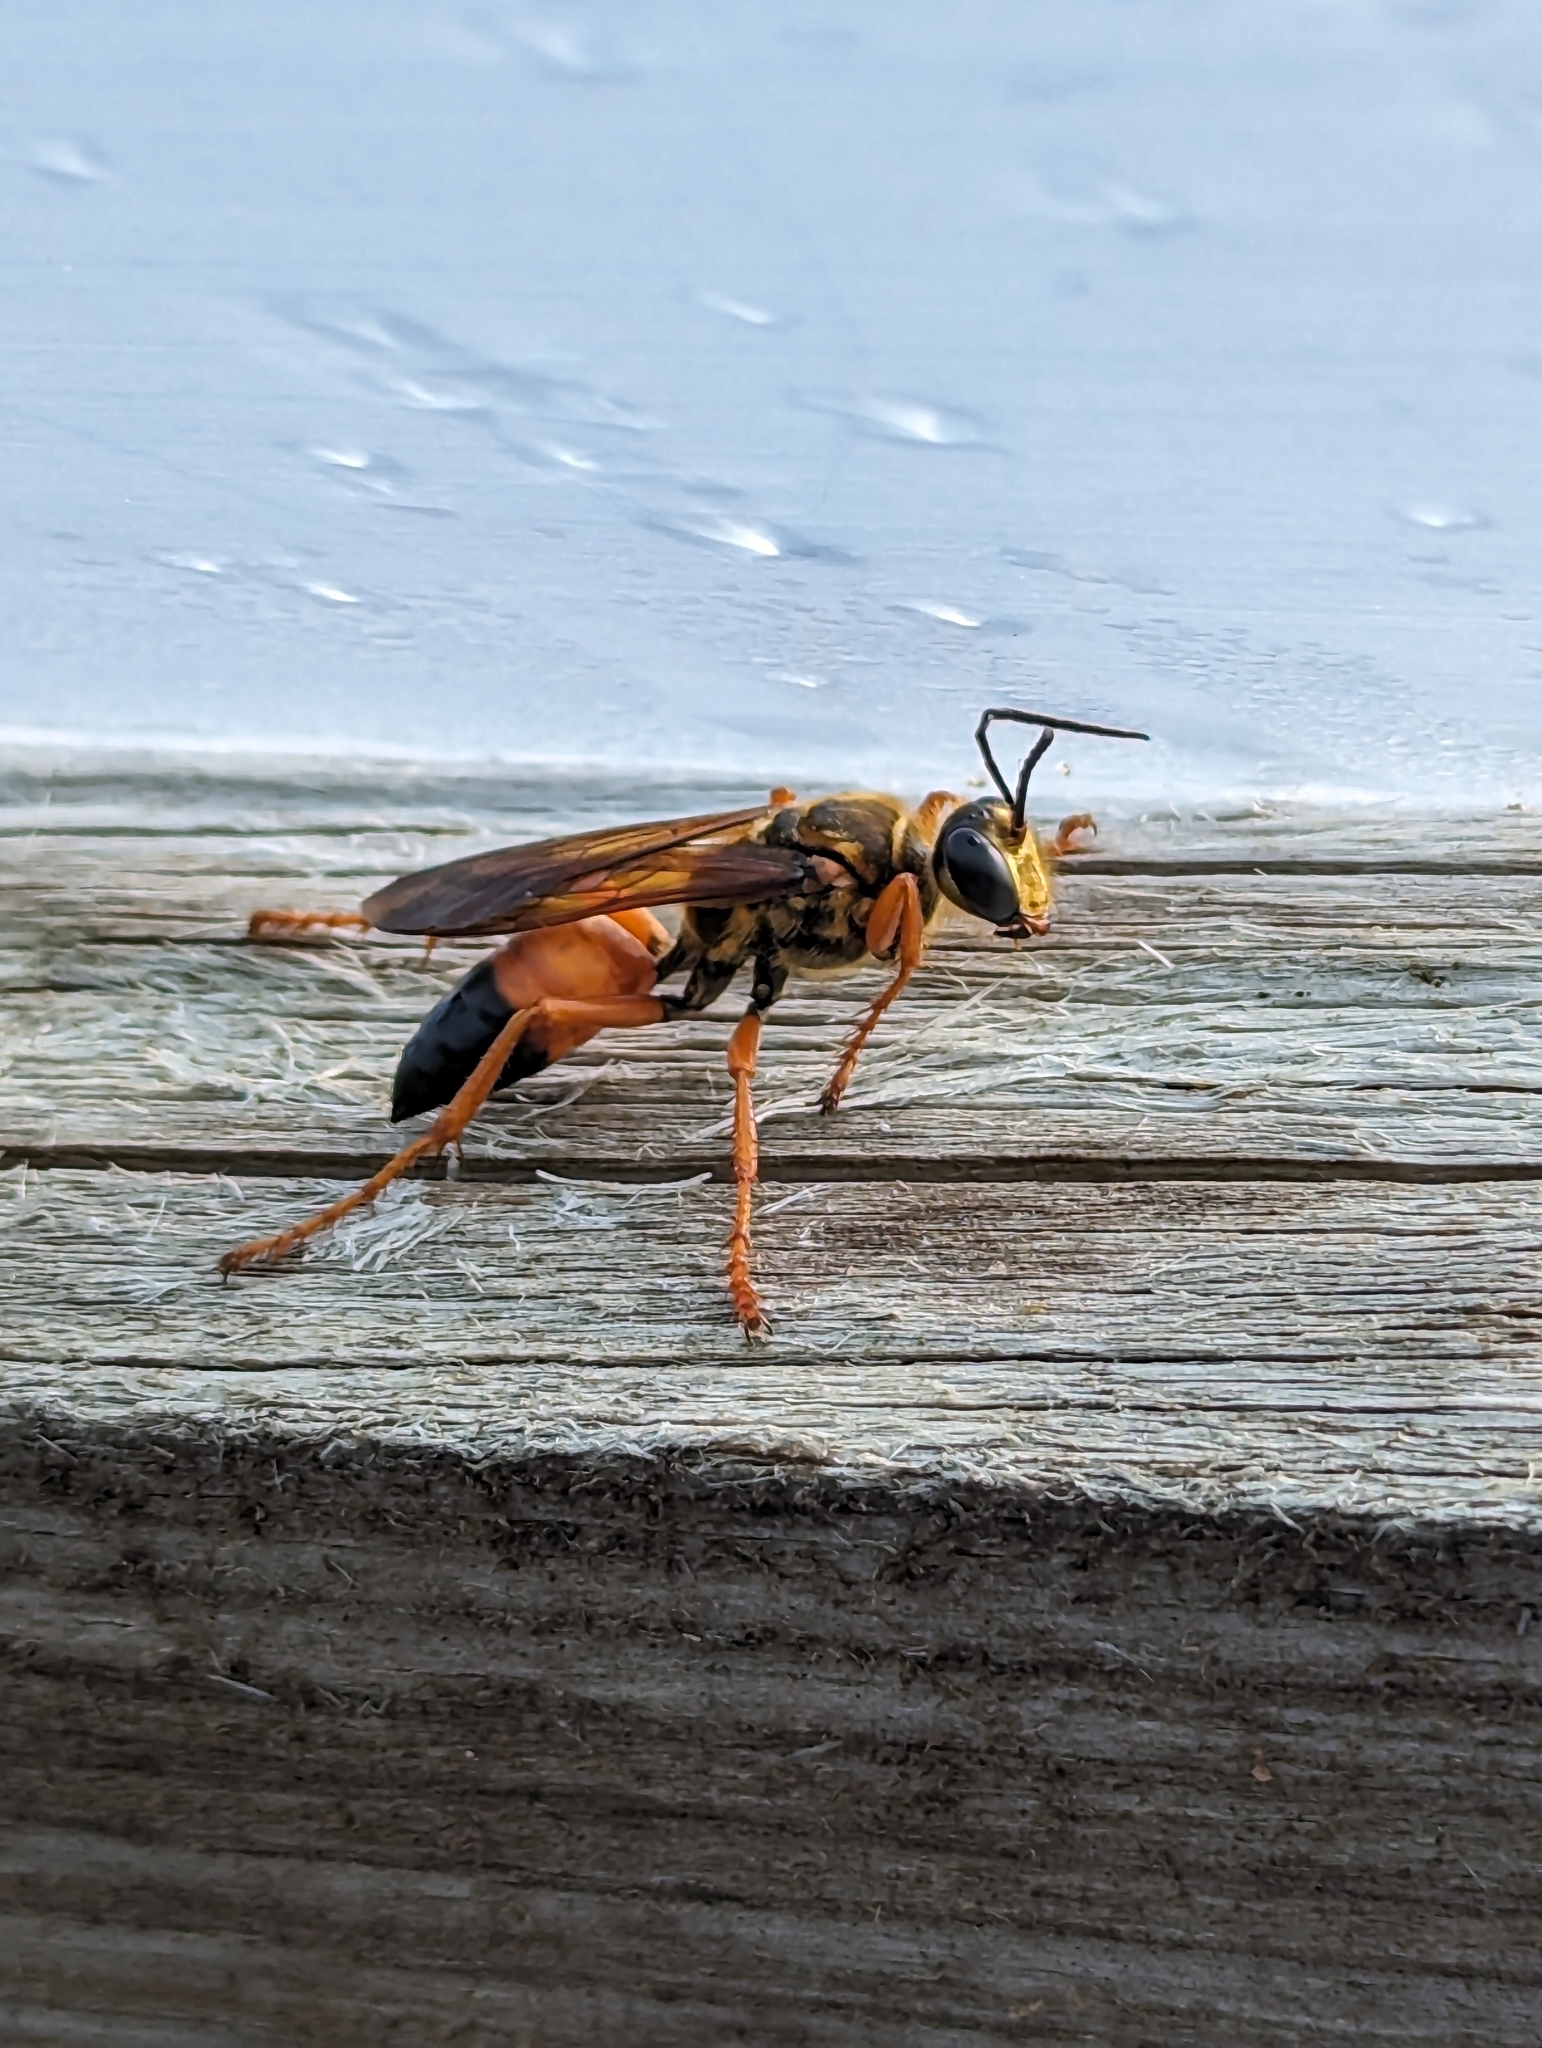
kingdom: Animalia
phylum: Arthropoda
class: Insecta
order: Hymenoptera
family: Sphecidae
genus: Sphex
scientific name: Sphex ichneumoneus
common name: Great golden digger wasp
